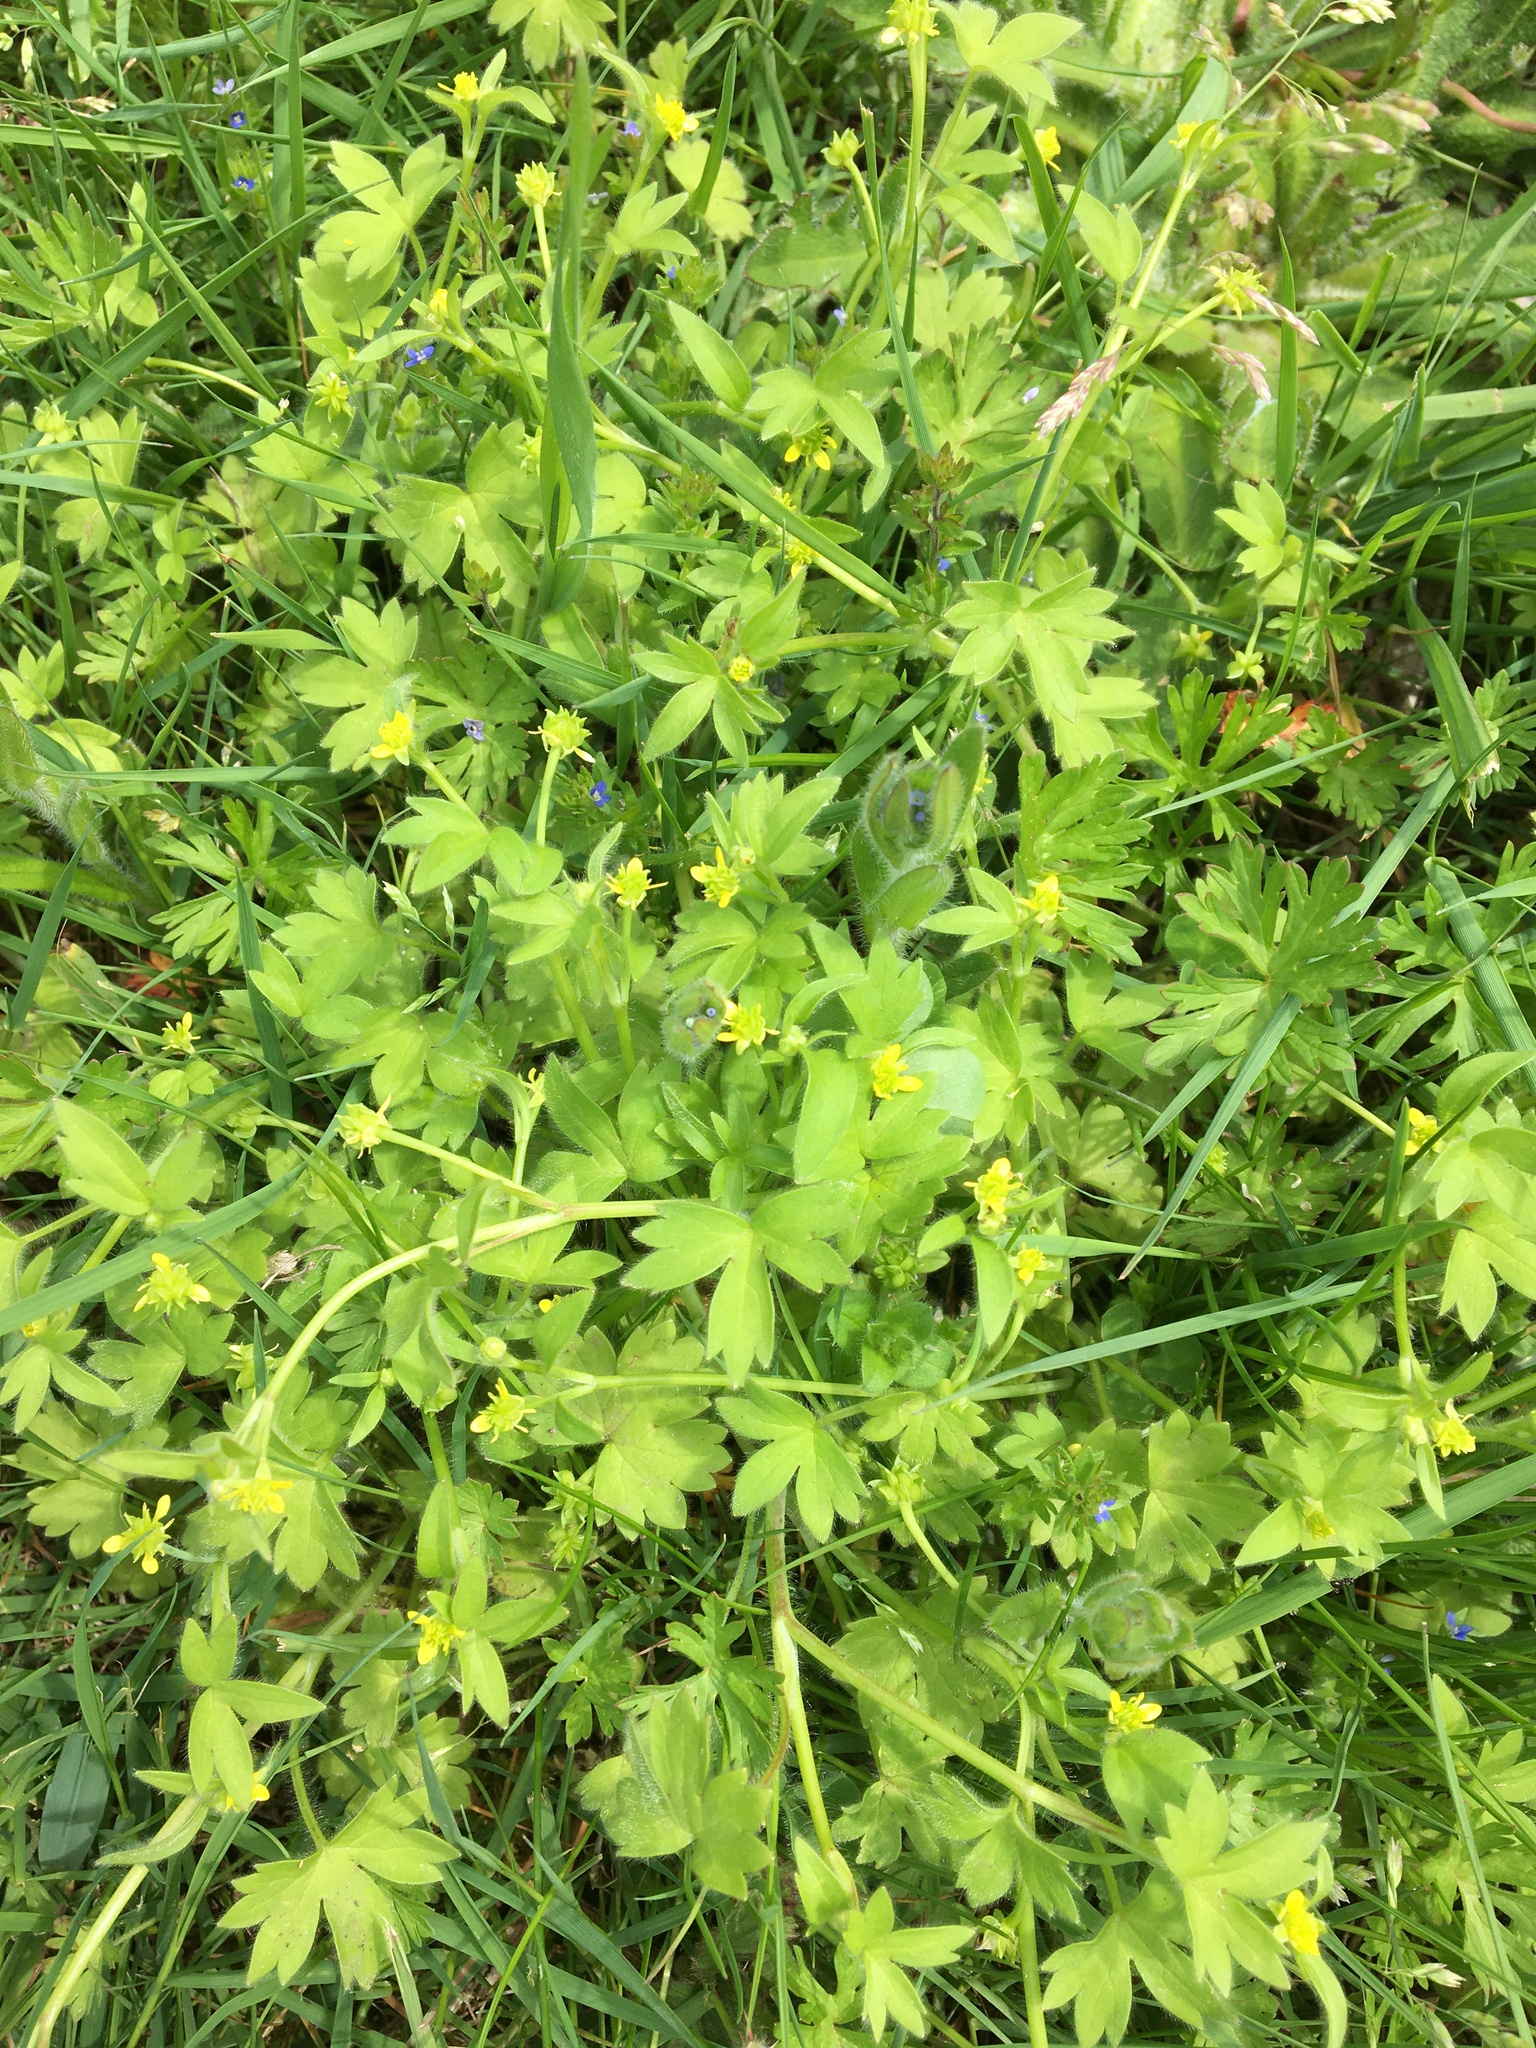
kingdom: Plantae
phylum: Tracheophyta
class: Magnoliopsida
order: Ranunculales
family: Ranunculaceae
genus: Ranunculus
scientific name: Ranunculus muricatus
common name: Rough-fruited buttercup
